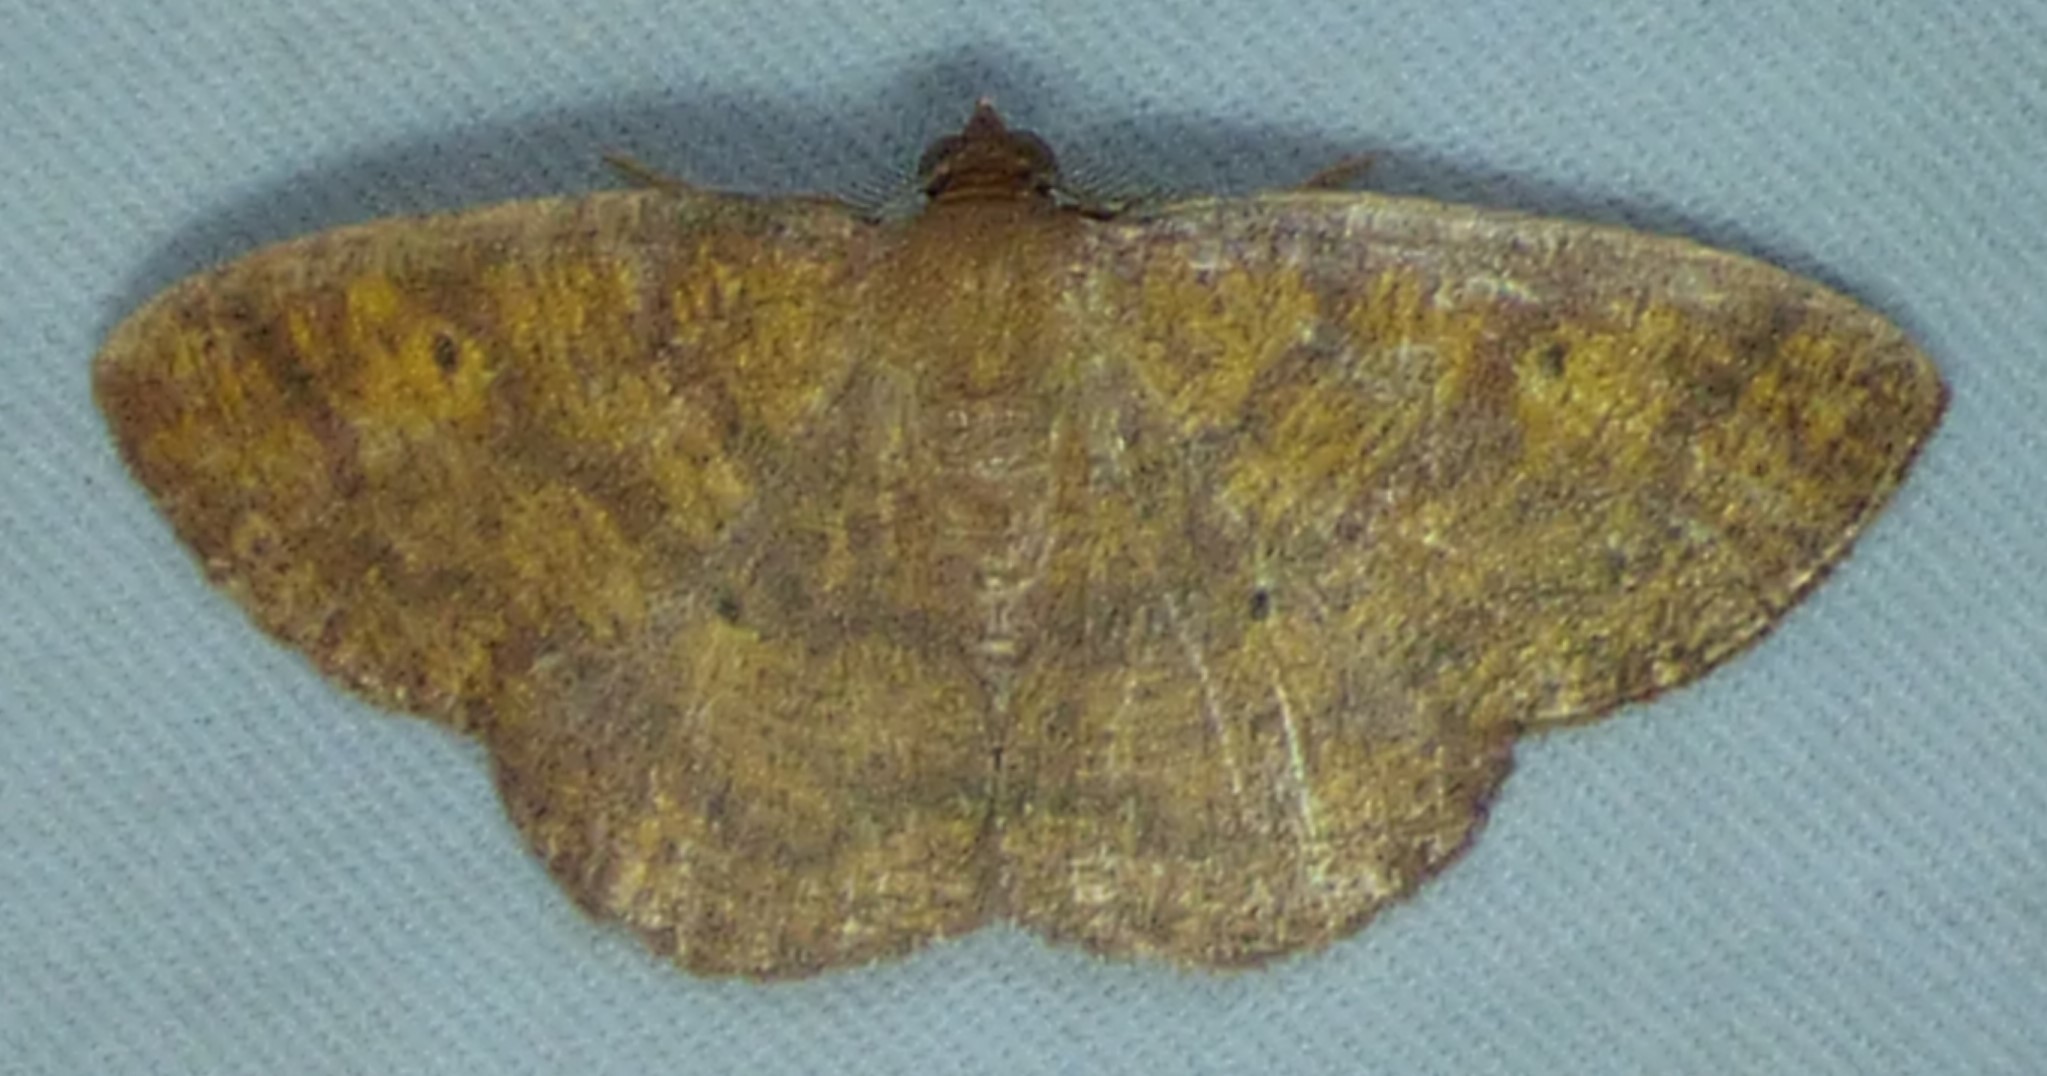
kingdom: Animalia
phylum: Arthropoda
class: Insecta
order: Lepidoptera
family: Geometridae
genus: Ilexia
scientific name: Ilexia intractata
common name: Black-dotted ruddy moth
